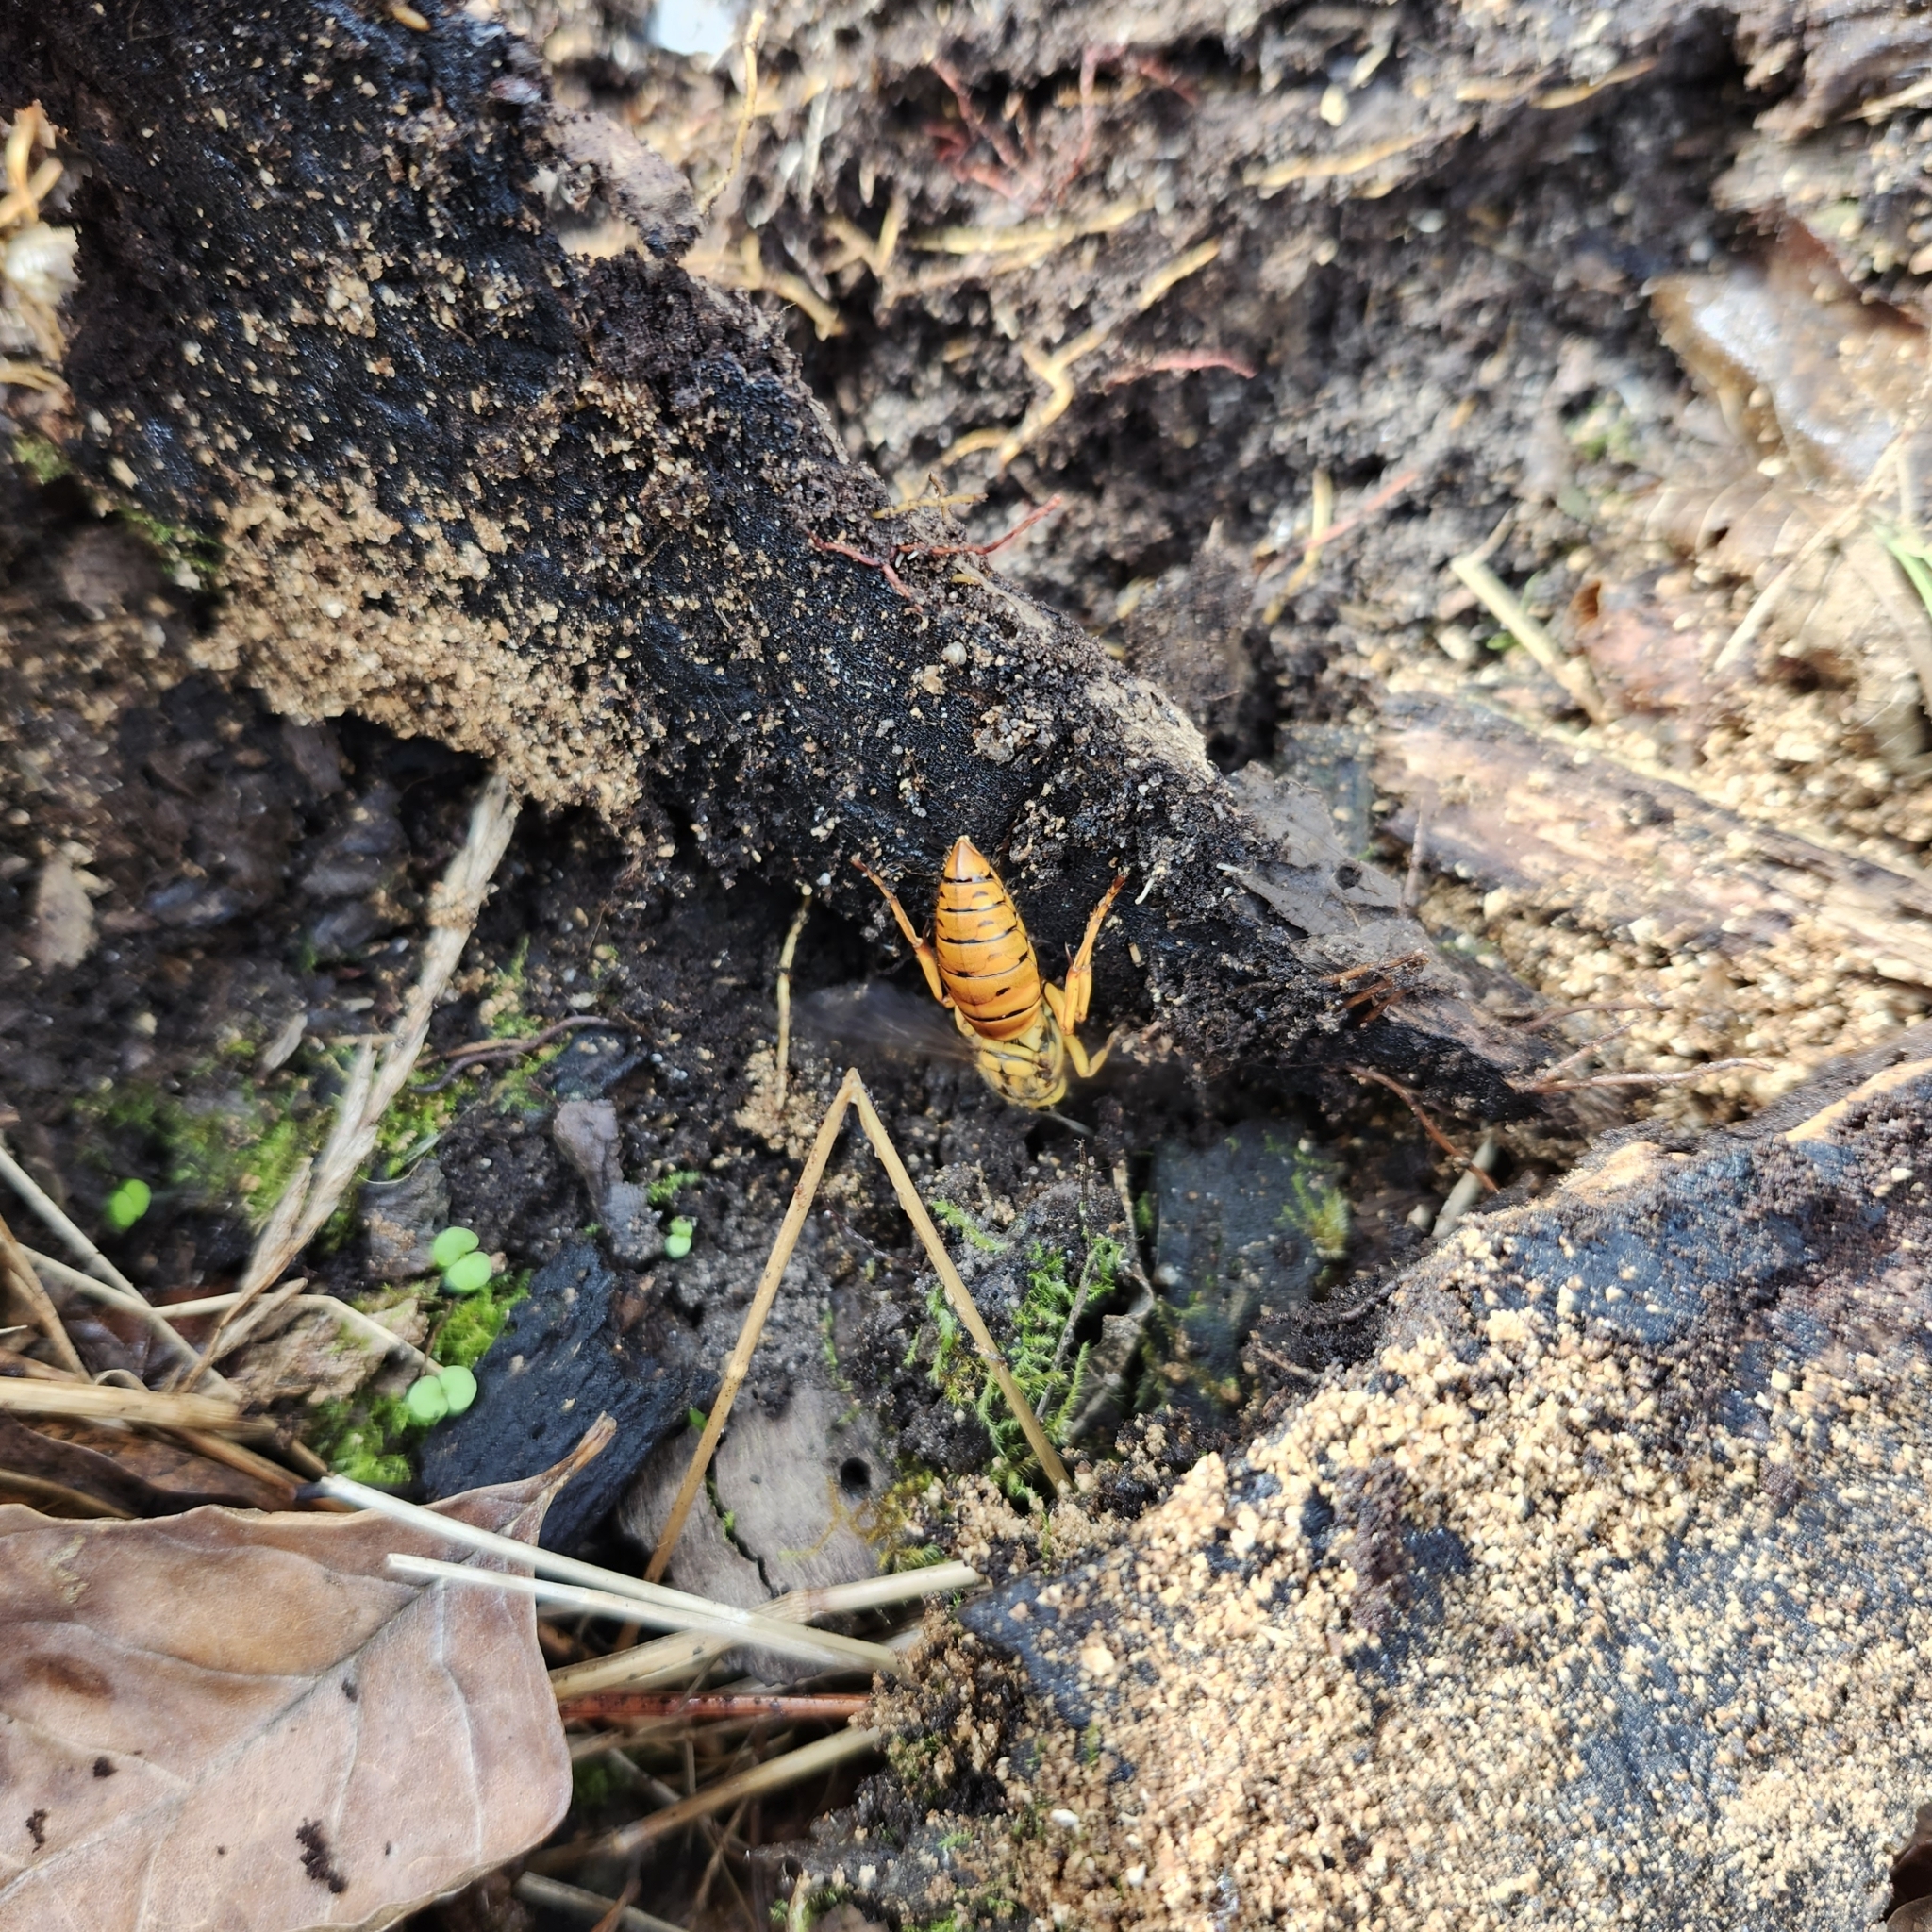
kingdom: Animalia
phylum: Arthropoda
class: Insecta
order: Hymenoptera
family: Vespidae
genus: Vespula
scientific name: Vespula squamosa
